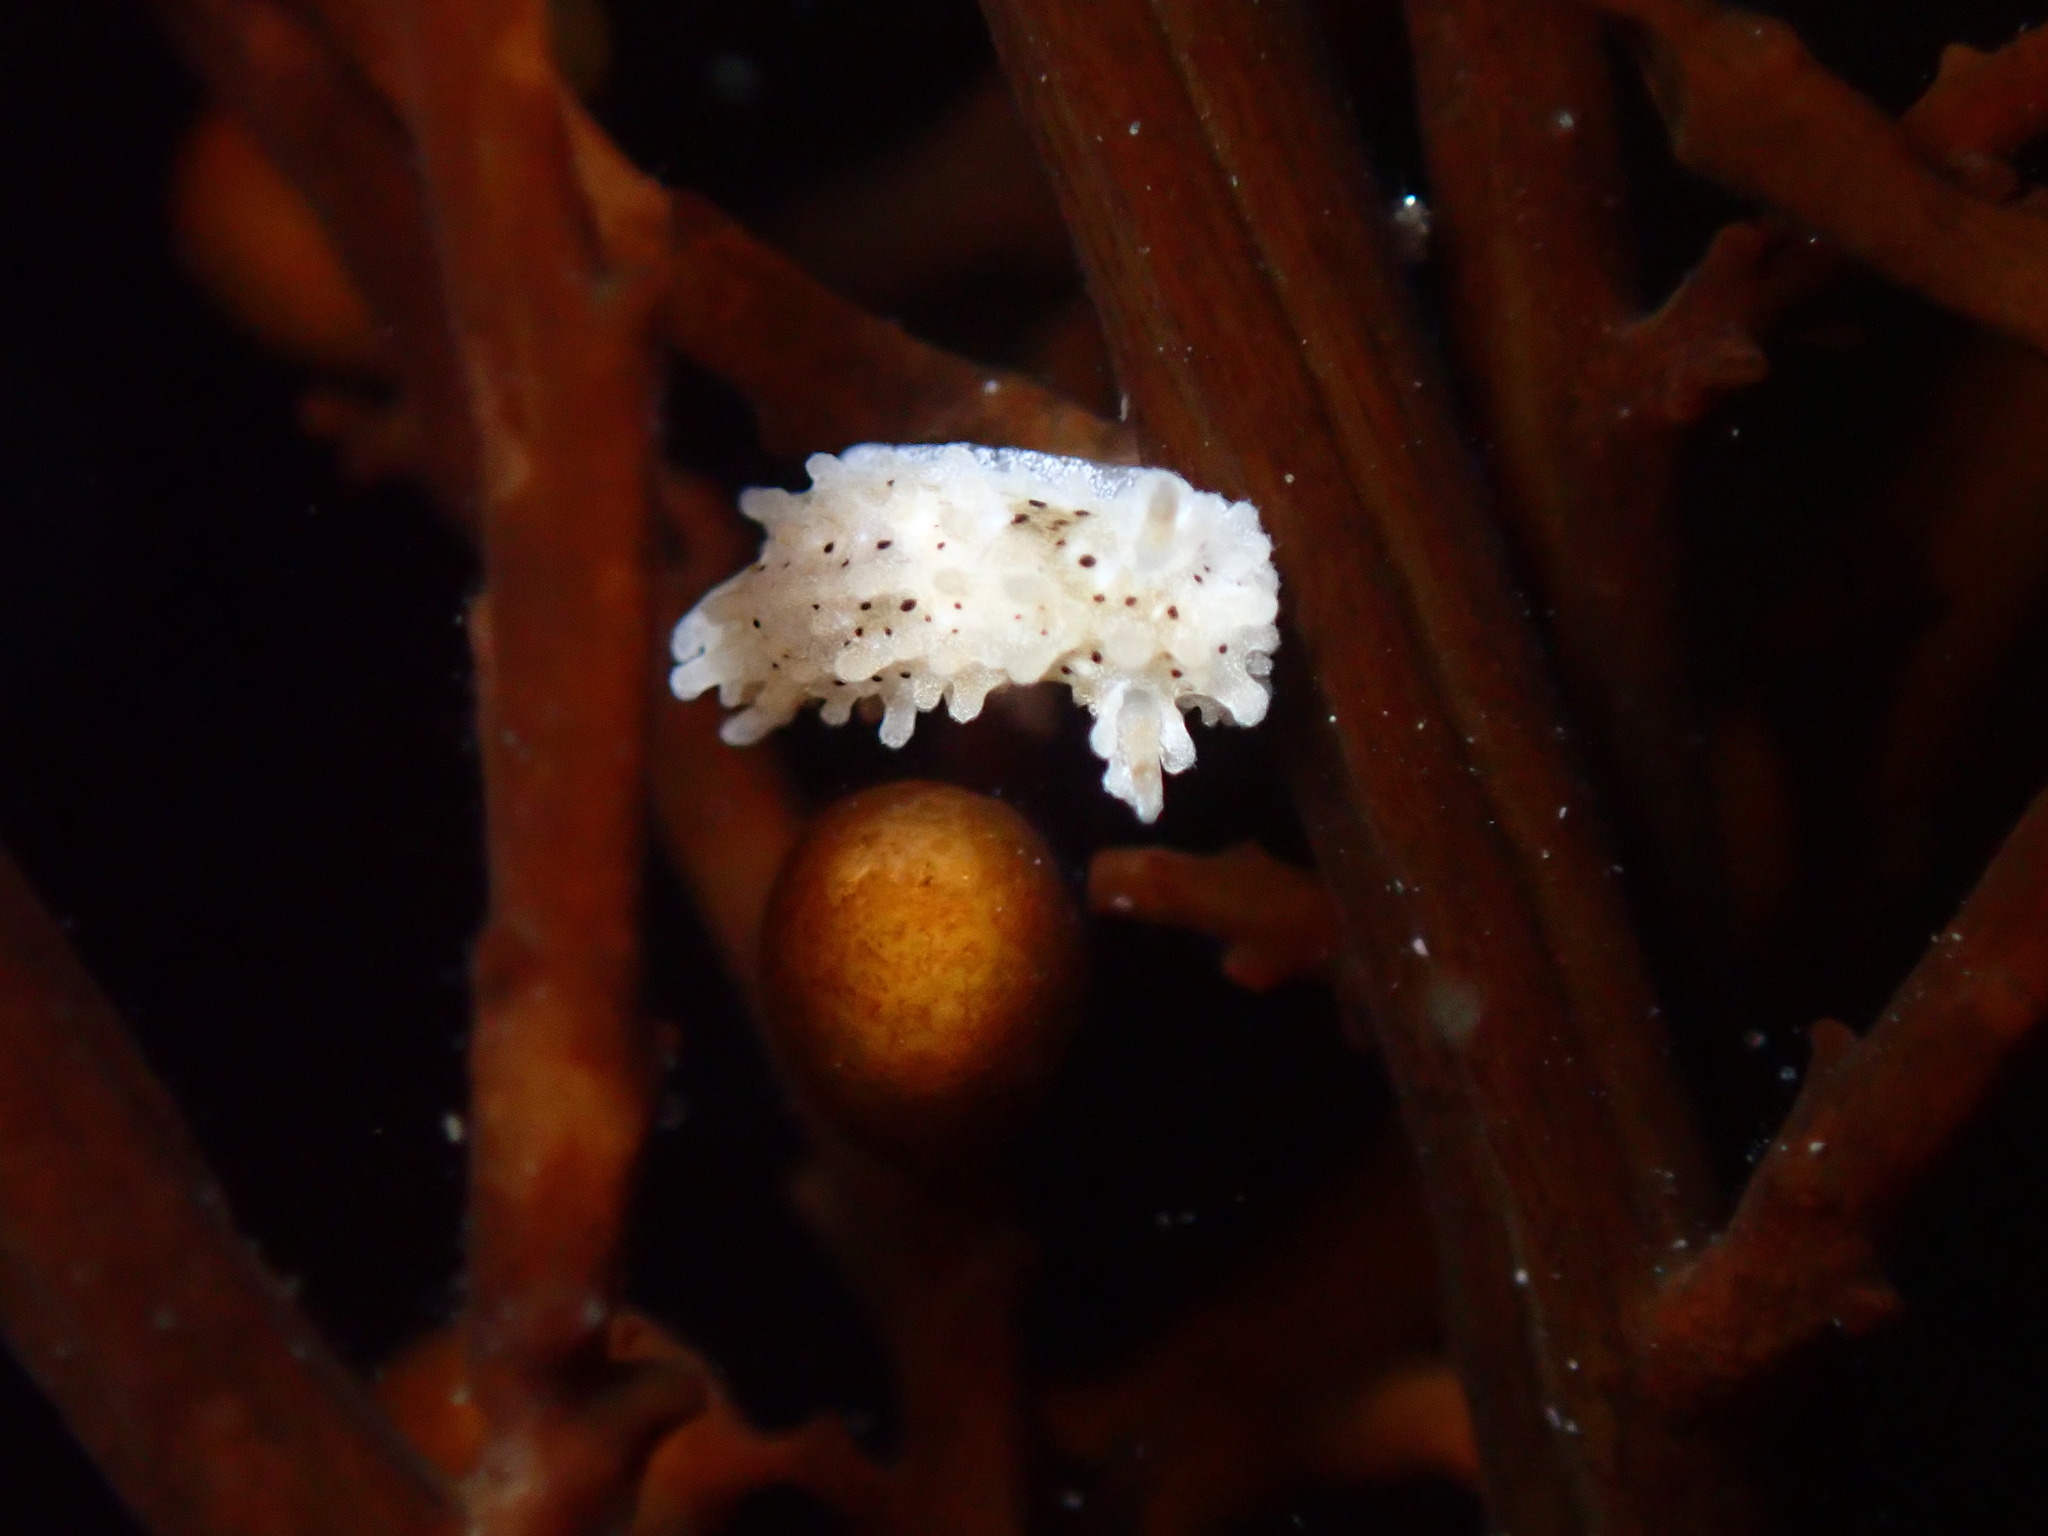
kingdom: Animalia
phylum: Mollusca
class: Gastropoda
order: Nudibranchia
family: Aegiridae
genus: Aegires
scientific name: Aegires albopunctatus
